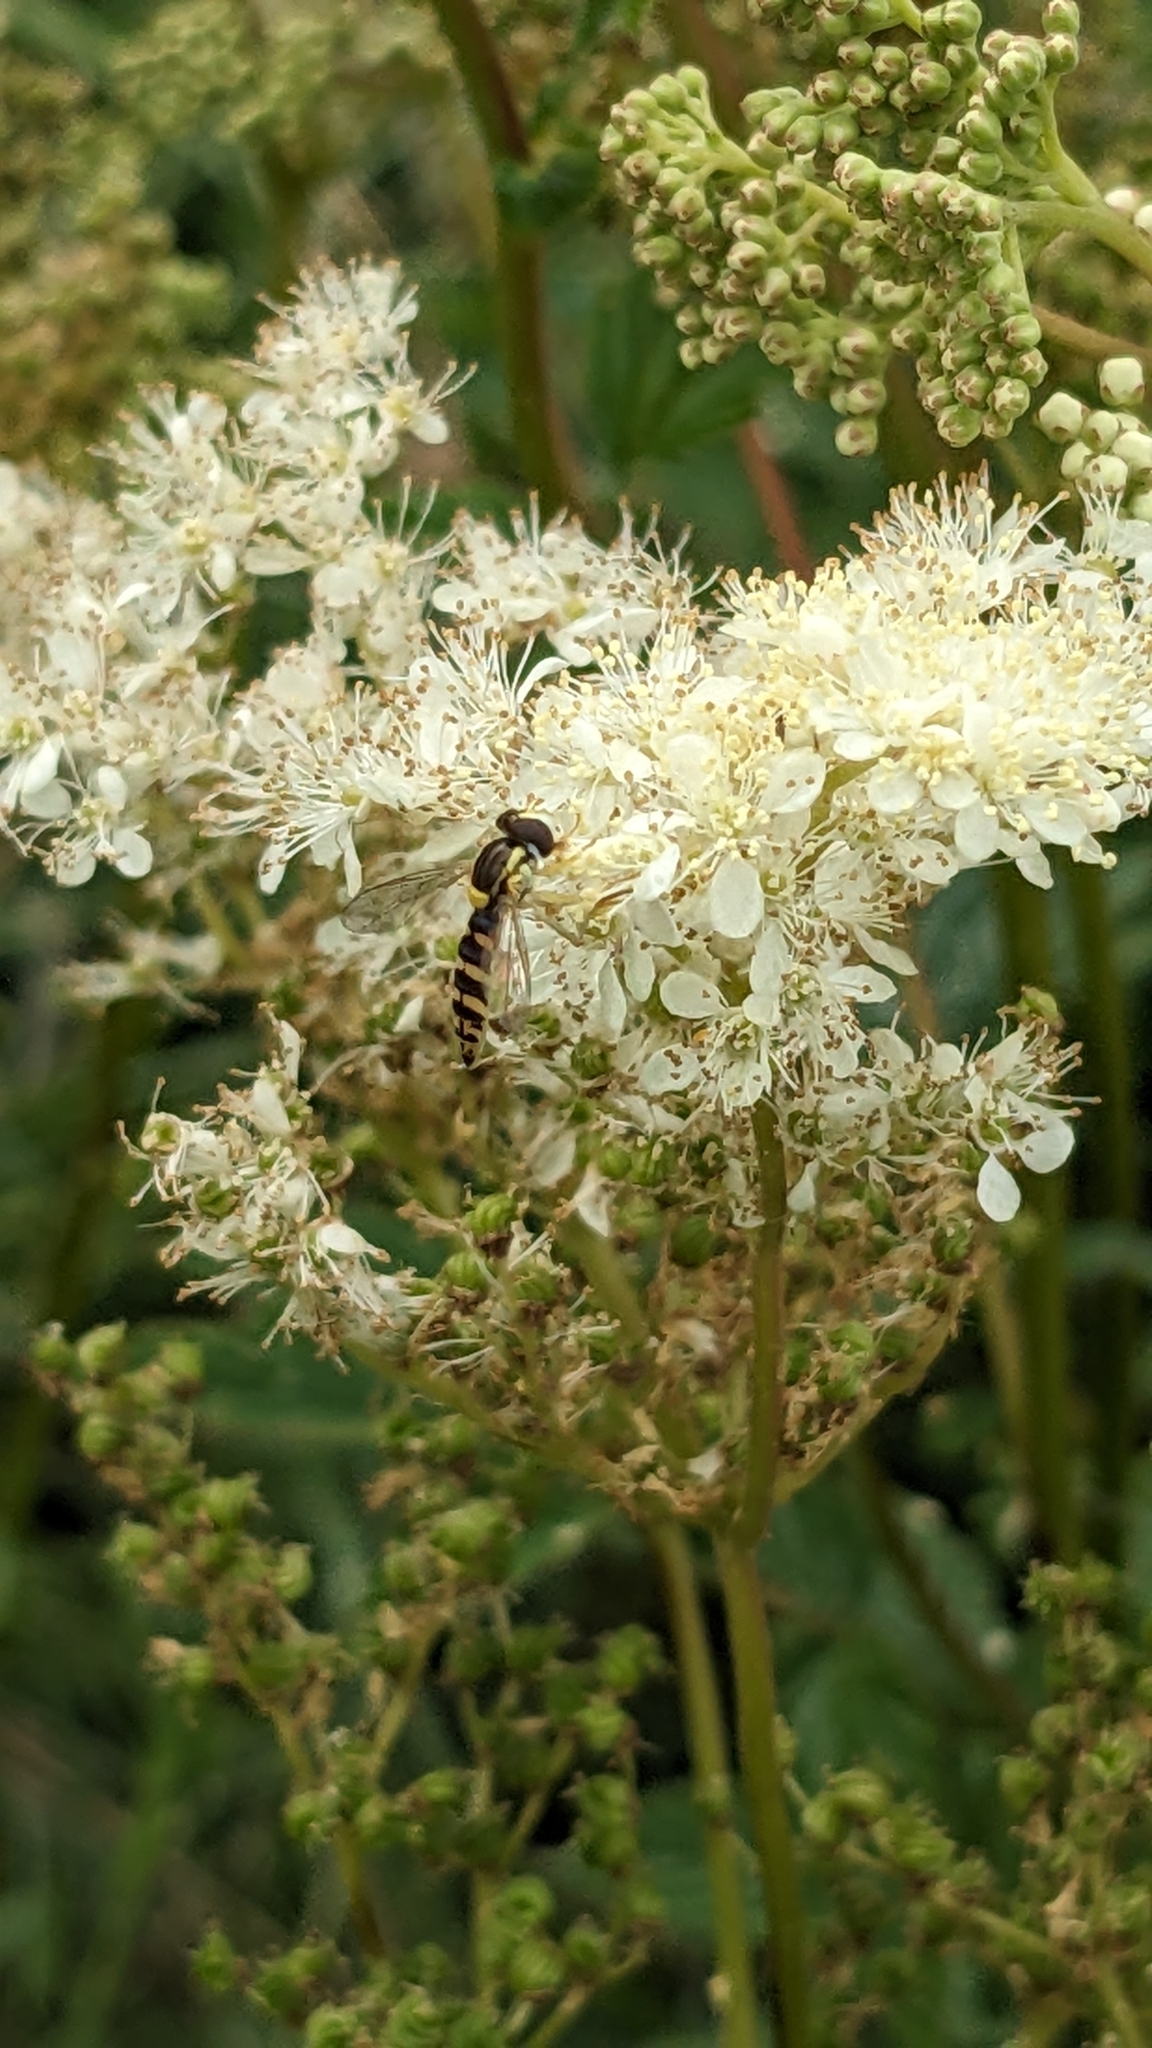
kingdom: Animalia
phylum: Arthropoda
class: Insecta
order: Diptera
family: Syrphidae
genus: Sphaerophoria
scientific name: Sphaerophoria
